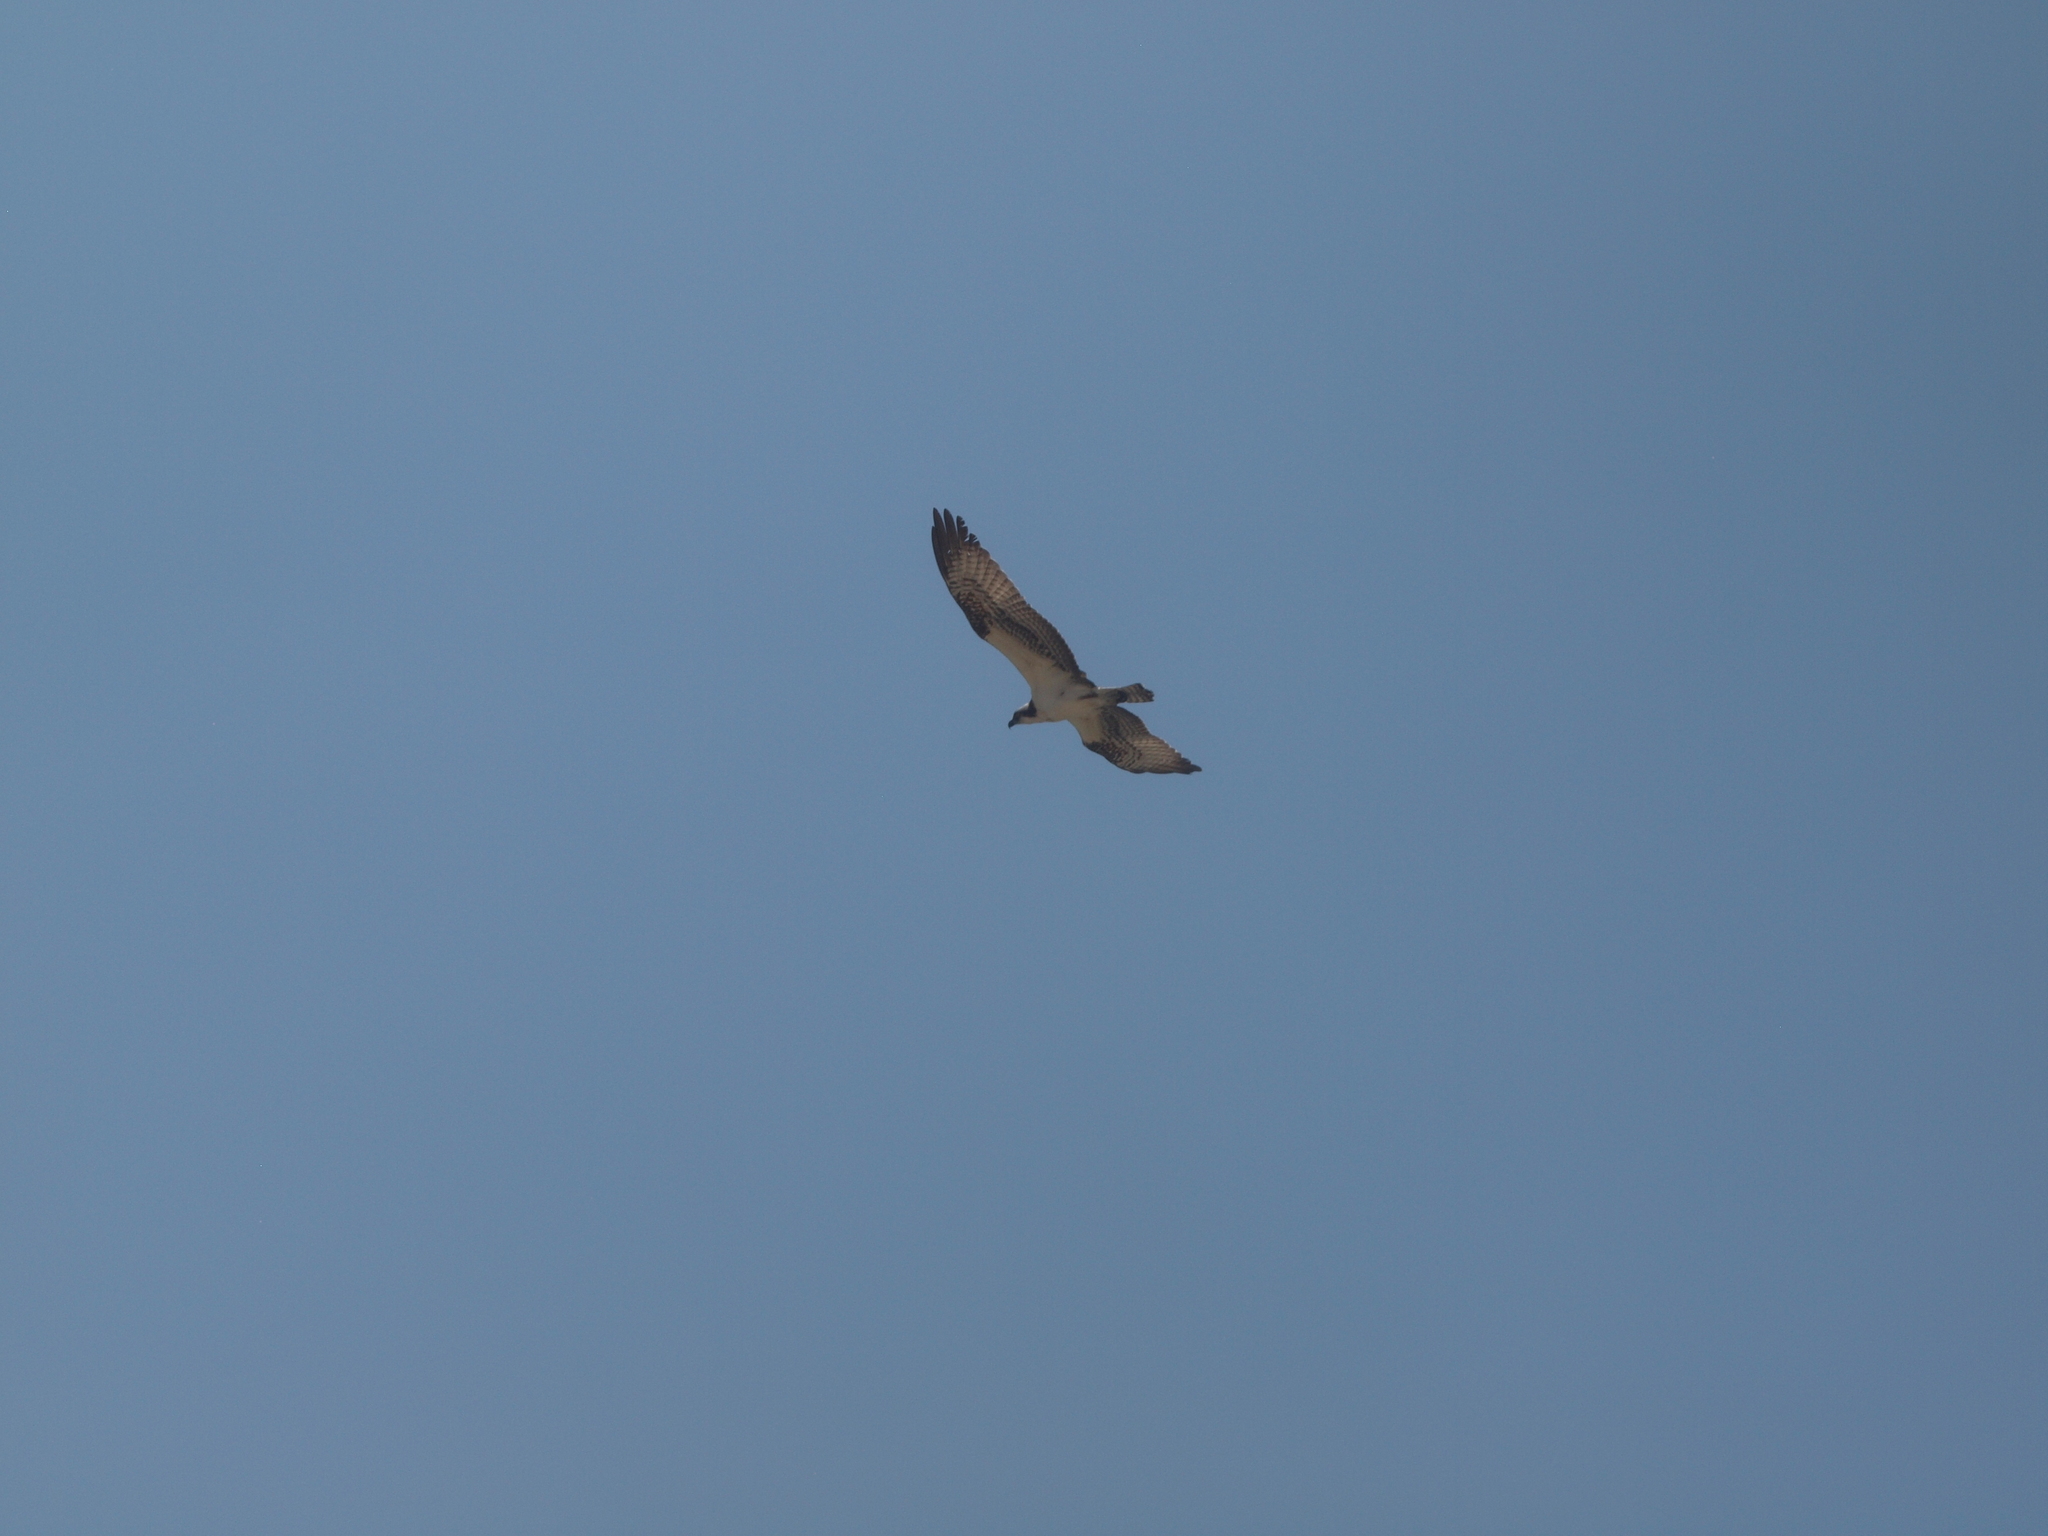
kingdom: Animalia
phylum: Chordata
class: Aves
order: Accipitriformes
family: Pandionidae
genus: Pandion
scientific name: Pandion haliaetus
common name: Osprey
